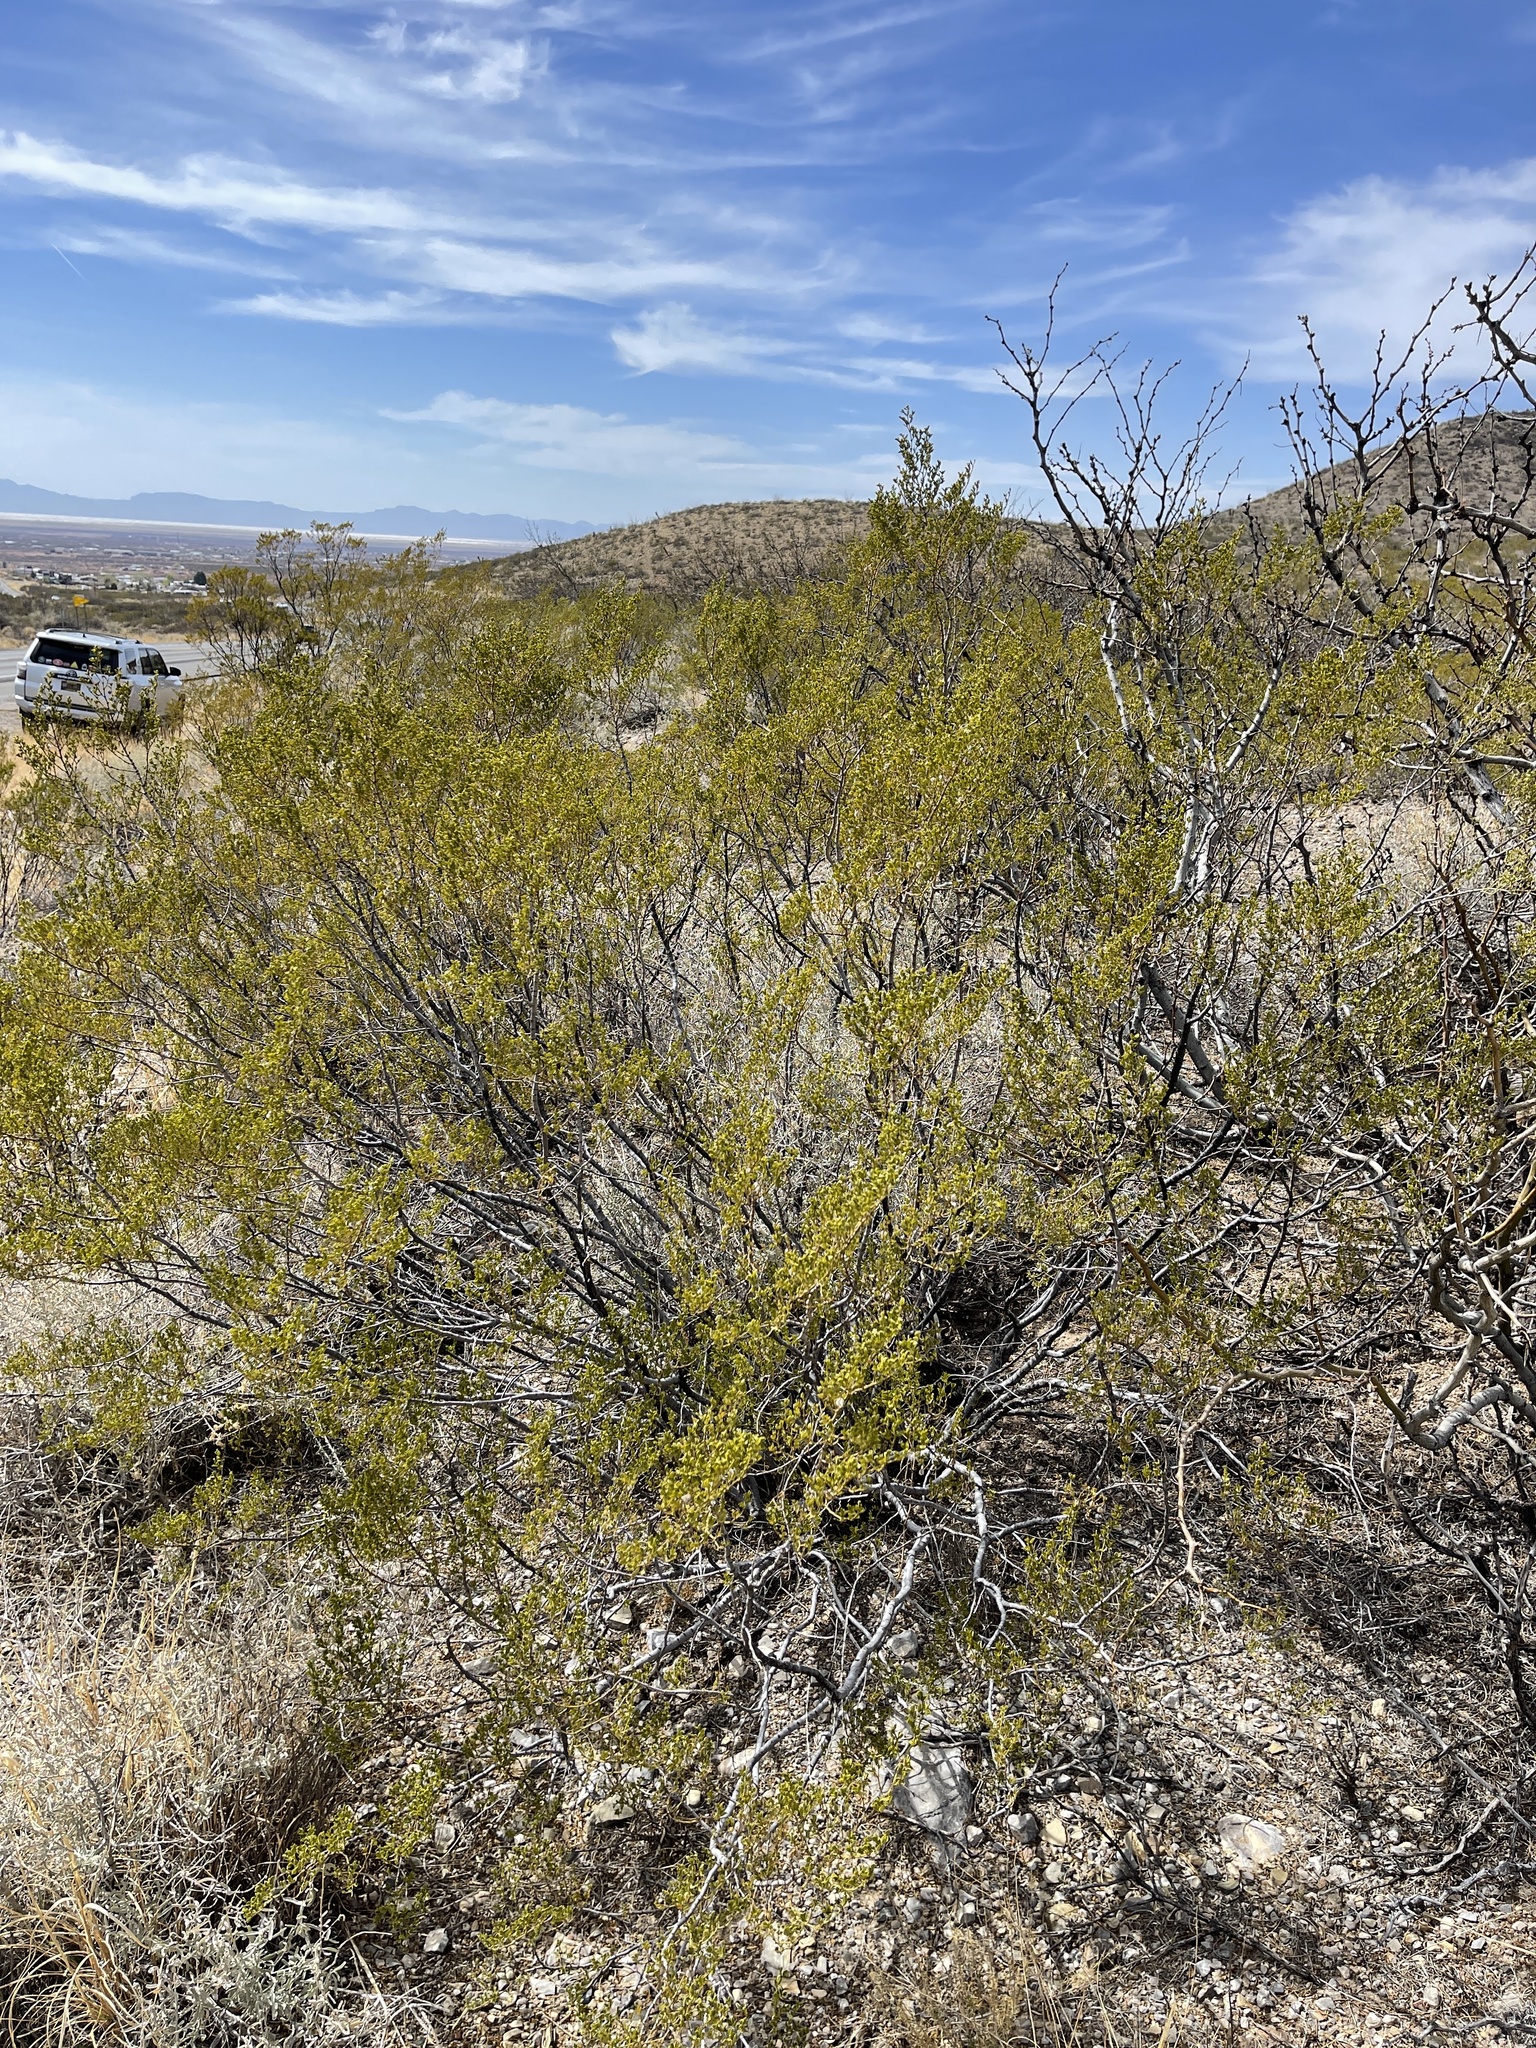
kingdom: Plantae
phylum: Tracheophyta
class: Magnoliopsida
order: Zygophyllales
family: Zygophyllaceae
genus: Larrea
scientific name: Larrea tridentata
